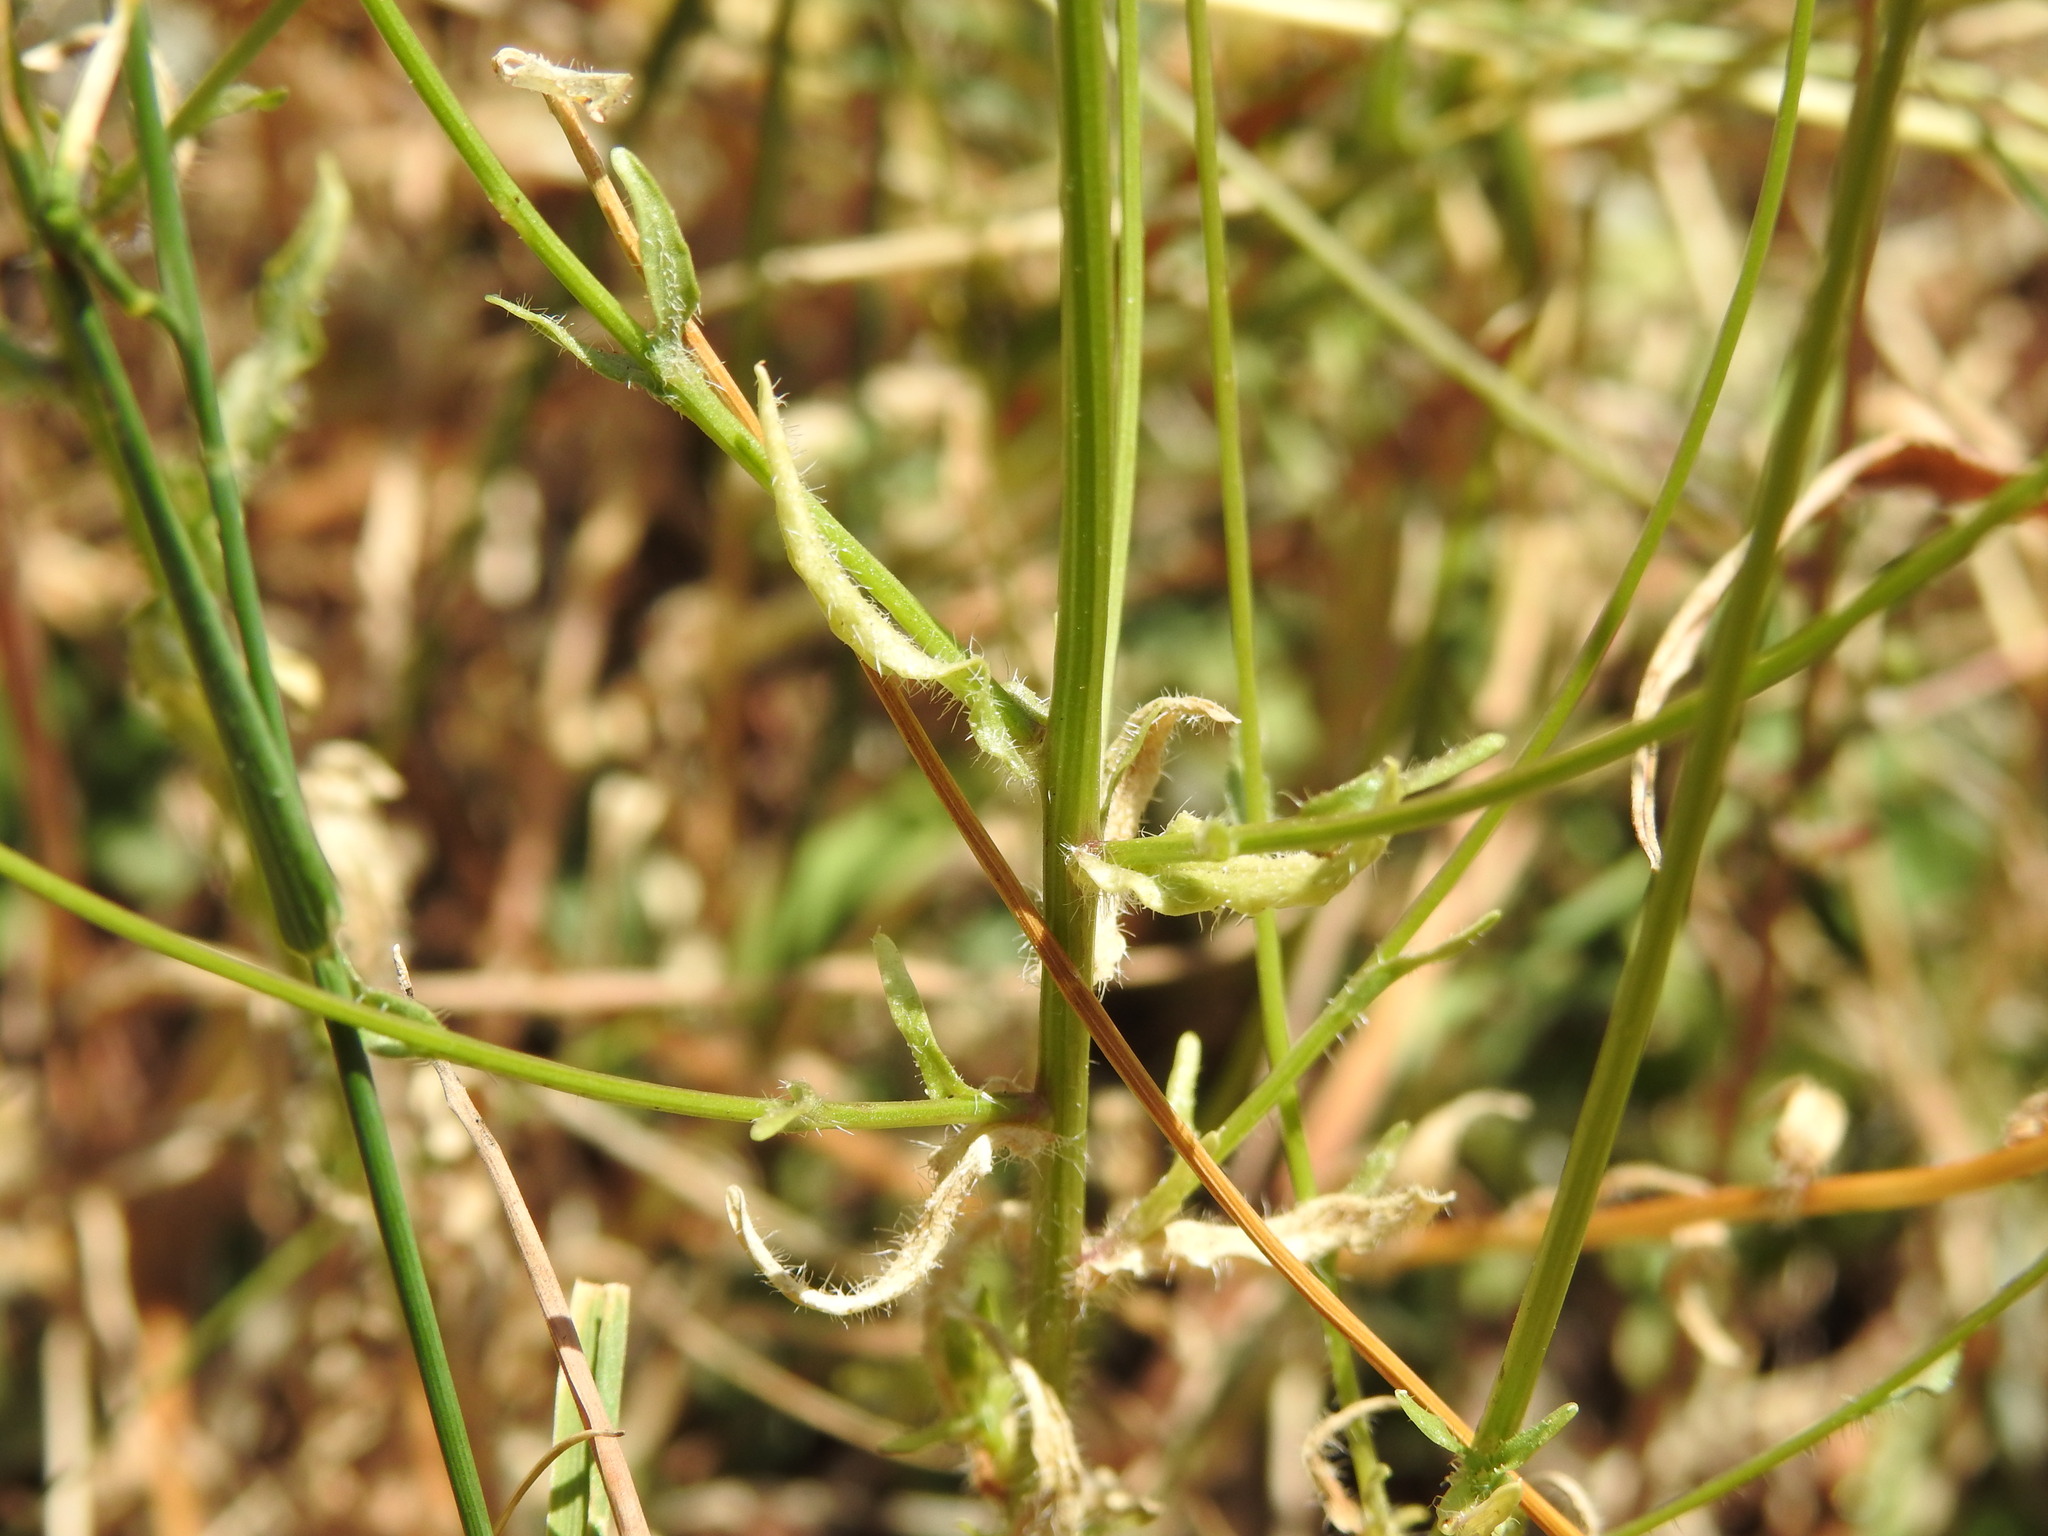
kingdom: Plantae
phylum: Tracheophyta
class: Magnoliopsida
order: Asterales
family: Campanulaceae
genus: Jasione
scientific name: Jasione montana
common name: Sheep's-bit
